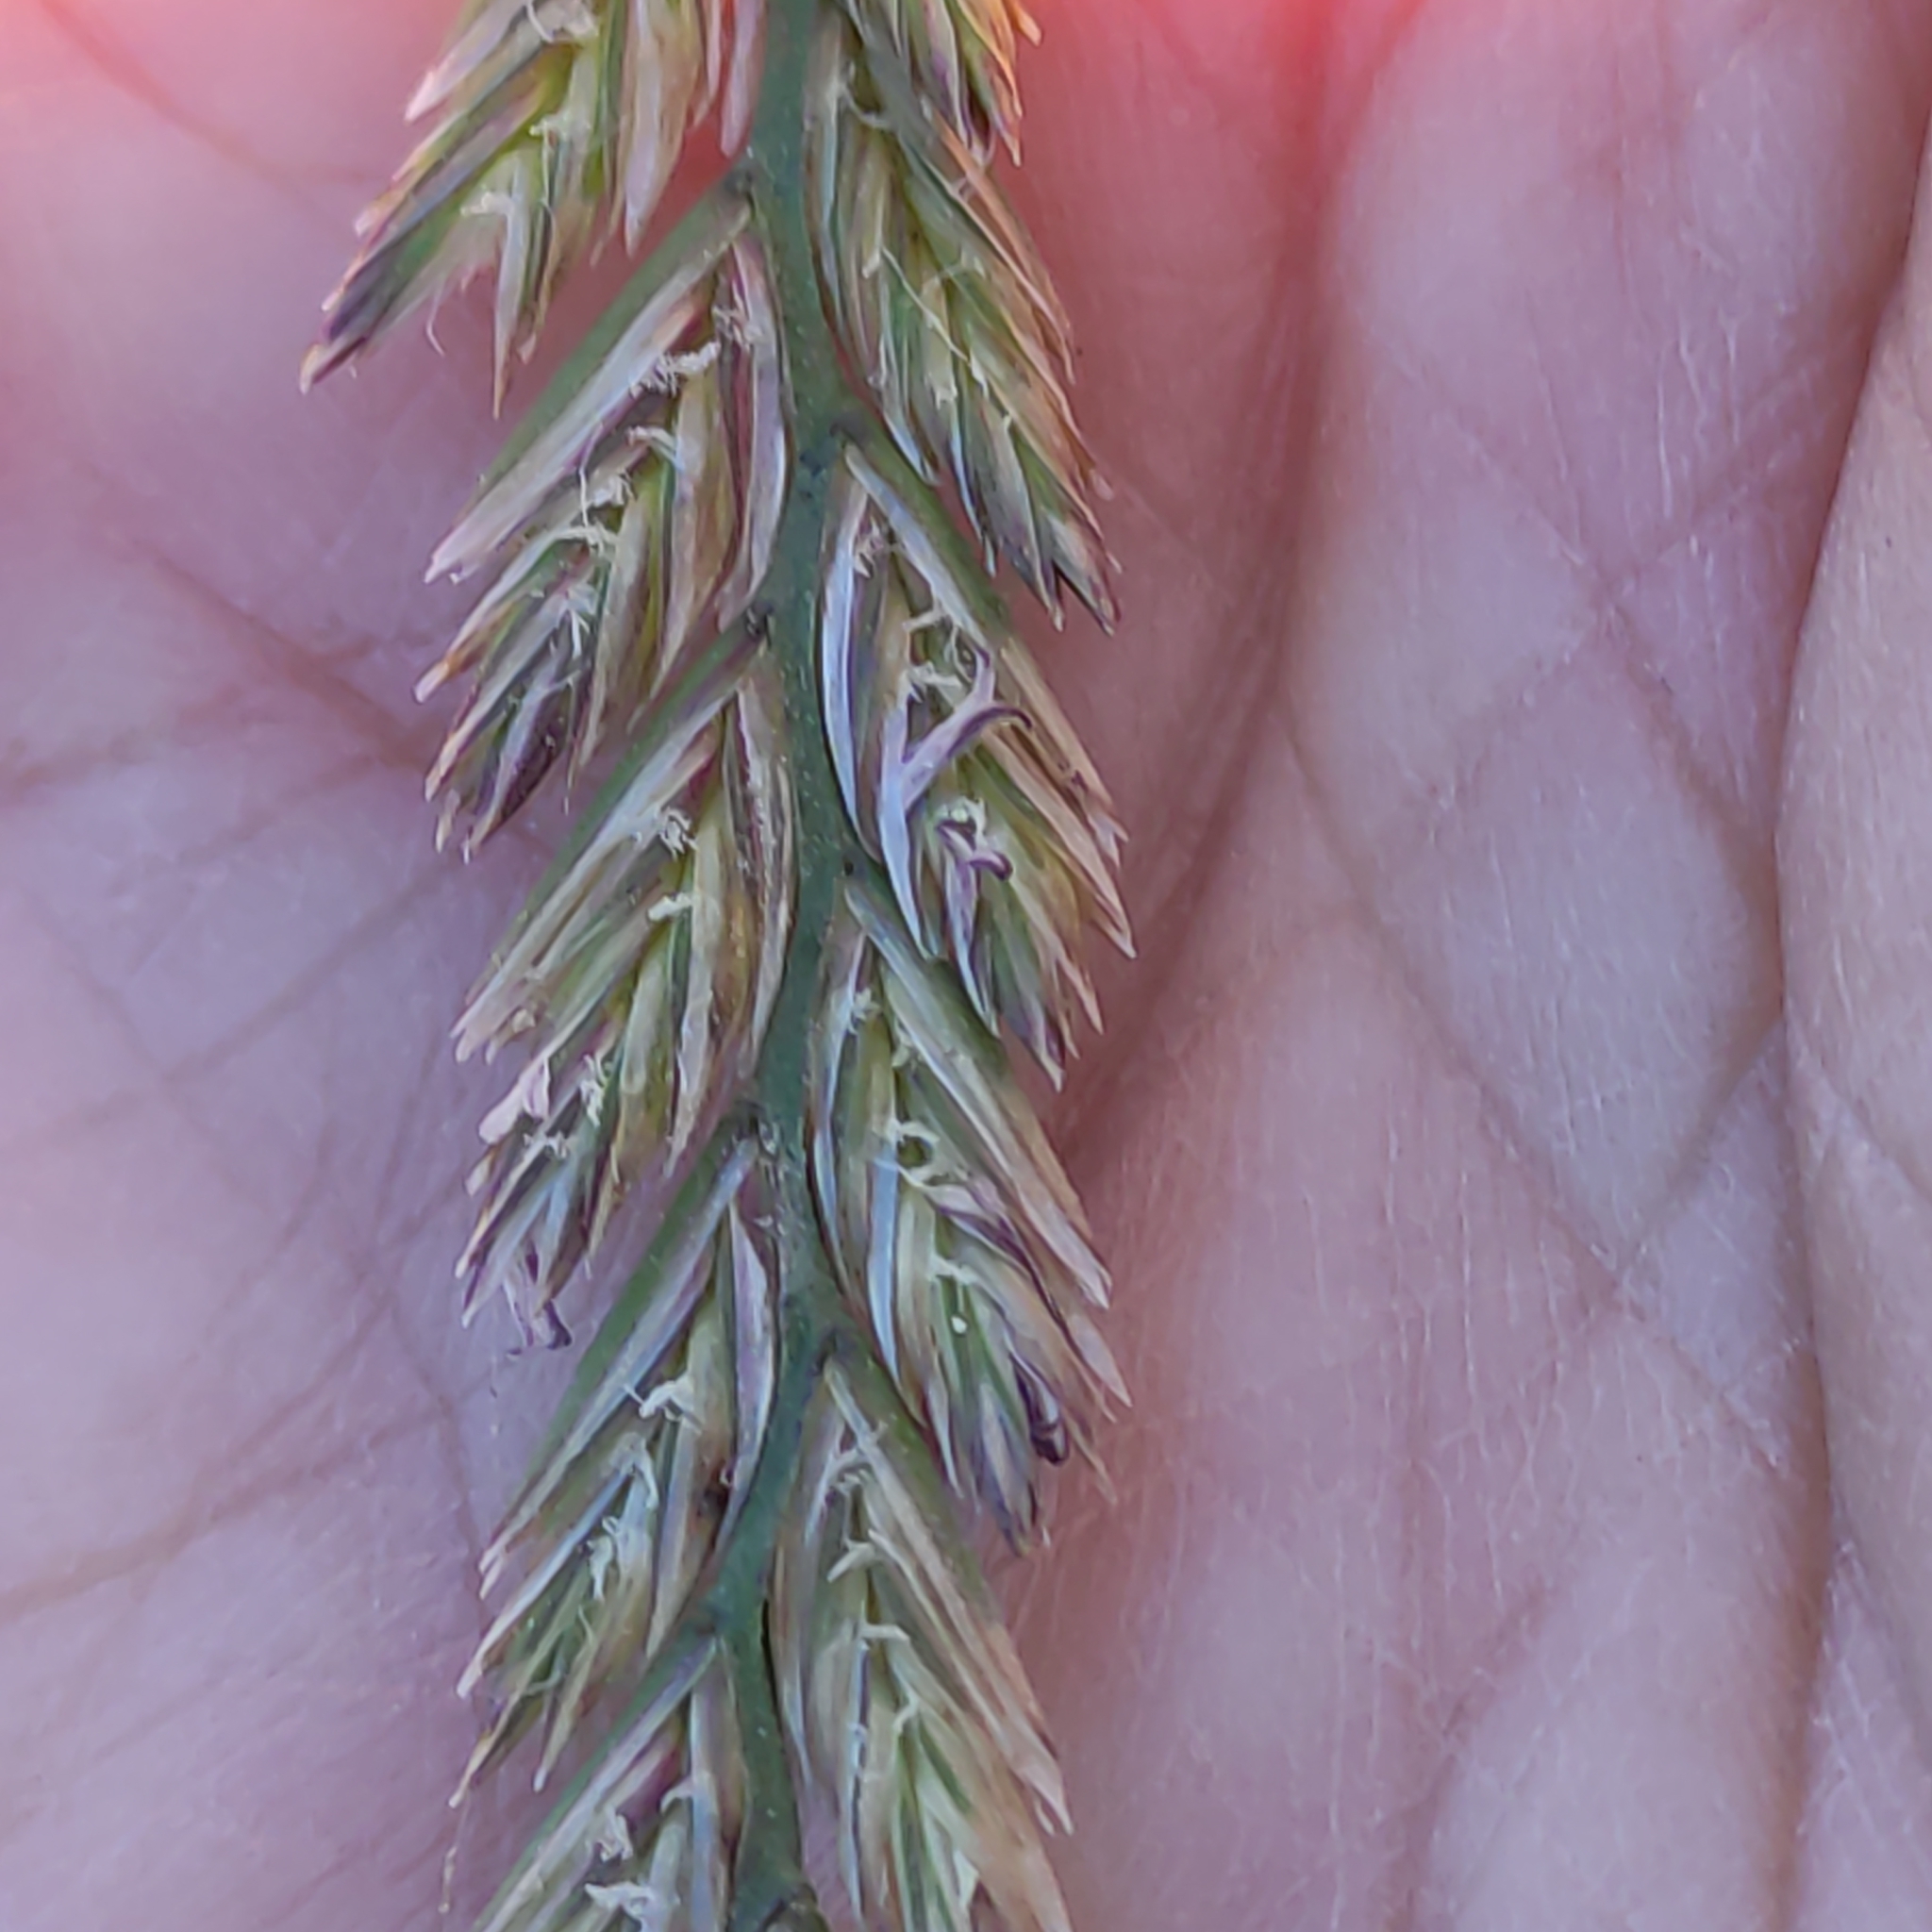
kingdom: Plantae
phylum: Tracheophyta
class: Liliopsida
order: Poales
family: Poaceae
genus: Lolium
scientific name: Lolium perenne
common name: Perennial ryegrass
